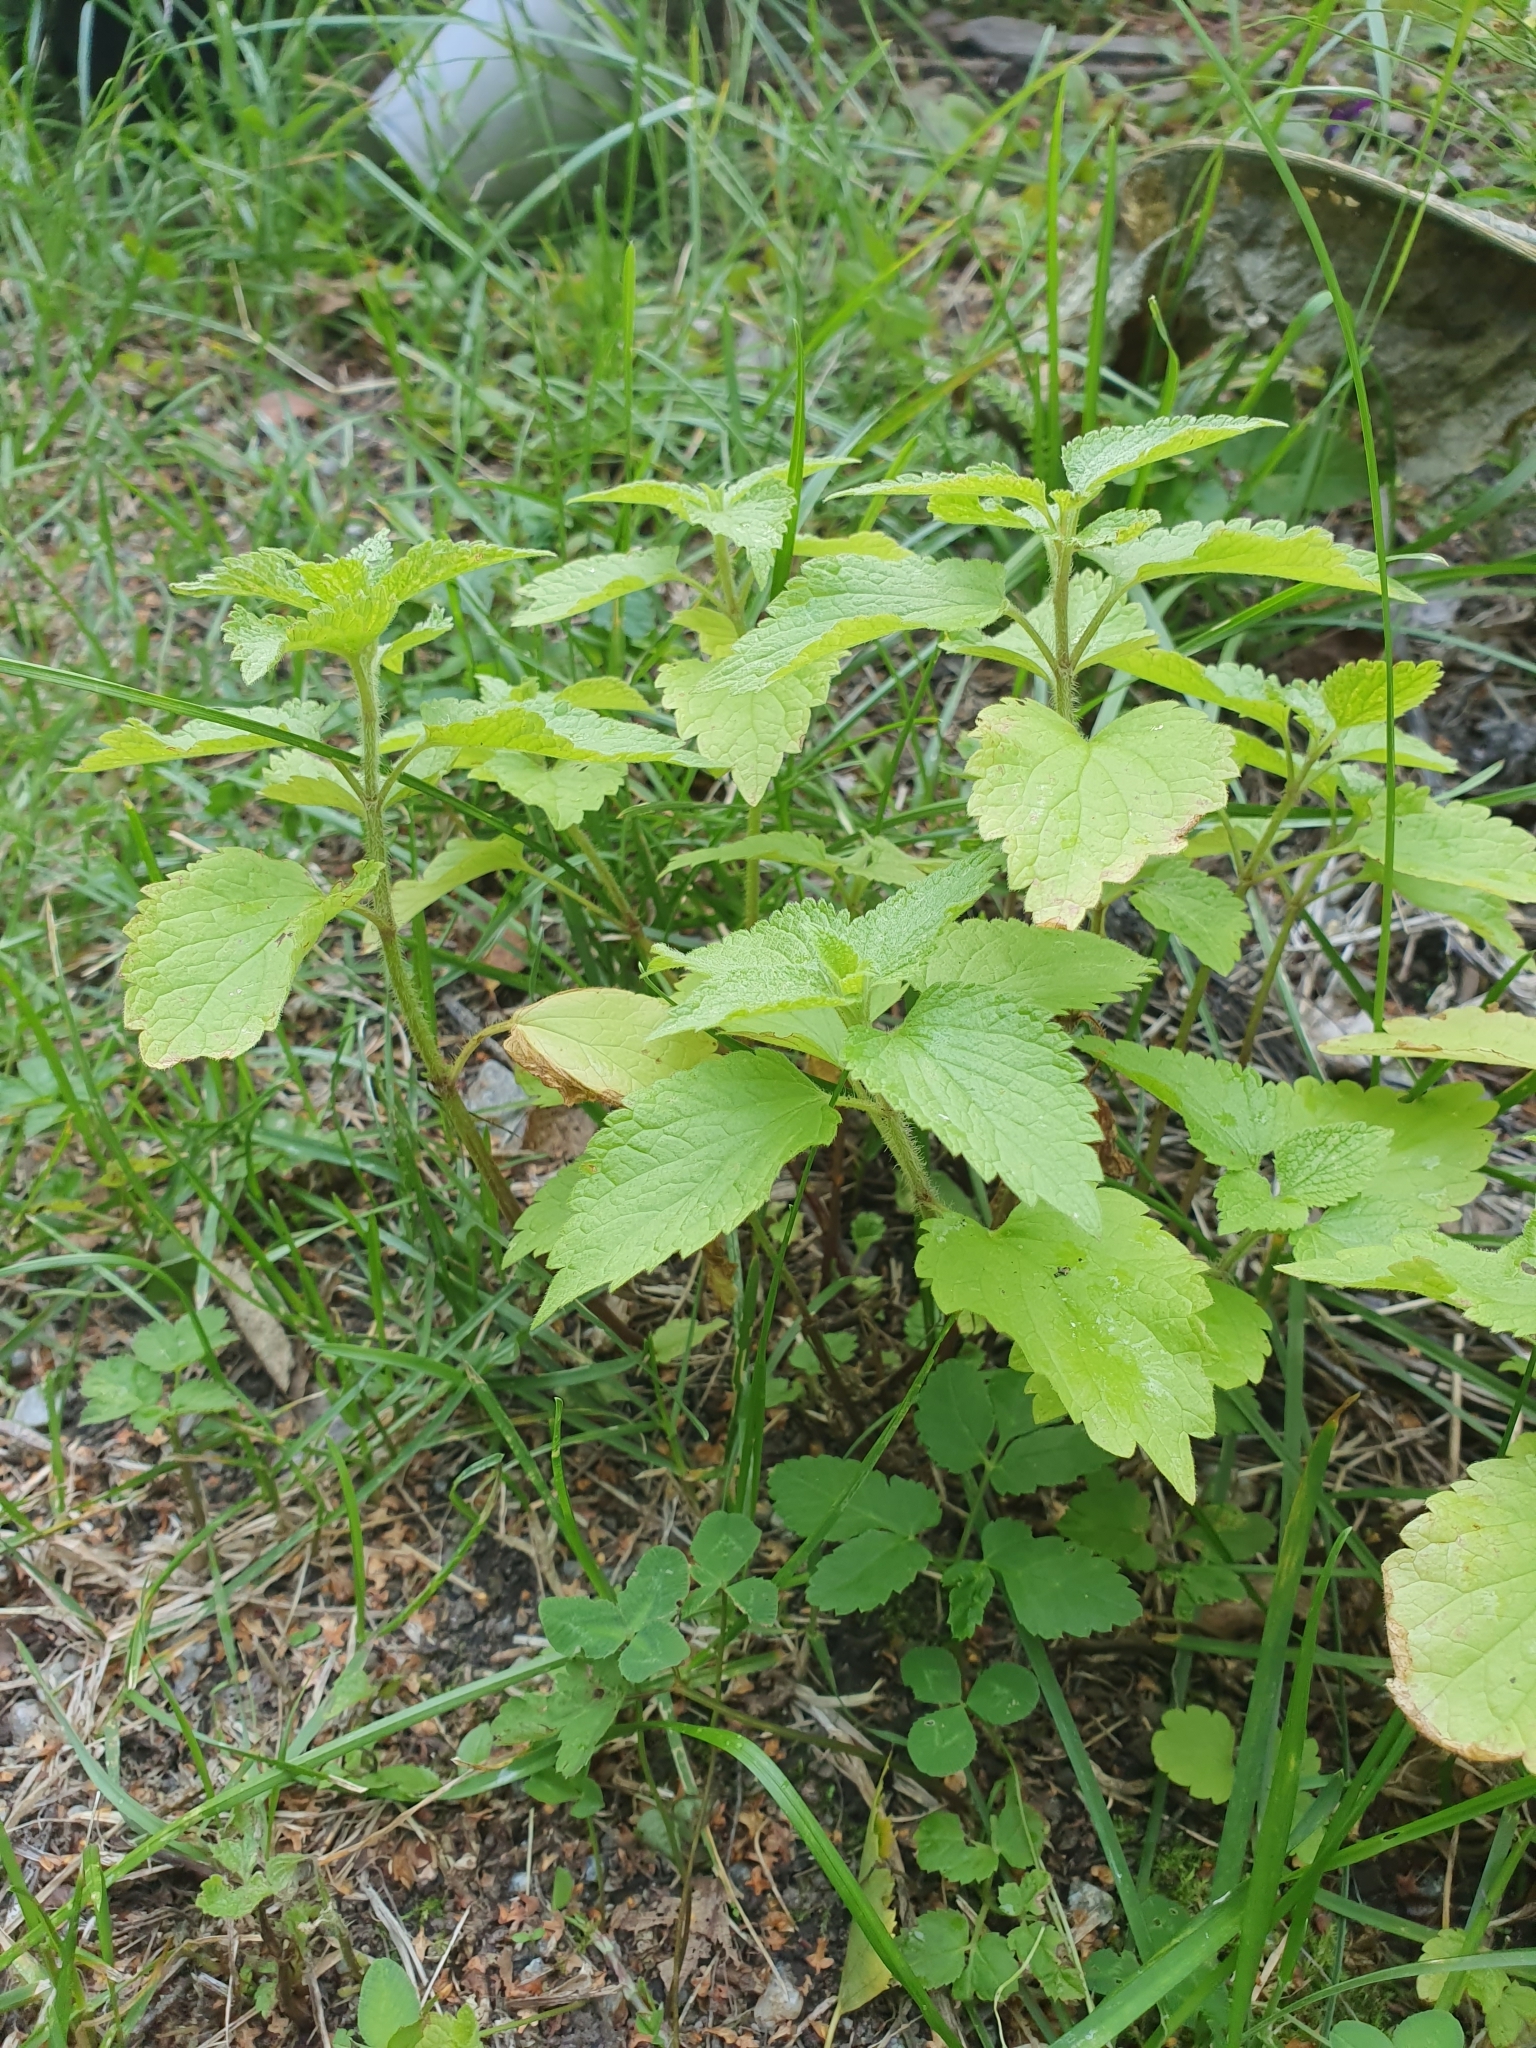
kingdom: Plantae
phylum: Tracheophyta
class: Magnoliopsida
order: Lamiales
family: Lamiaceae
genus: Lamium
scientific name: Lamium album
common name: White dead-nettle
